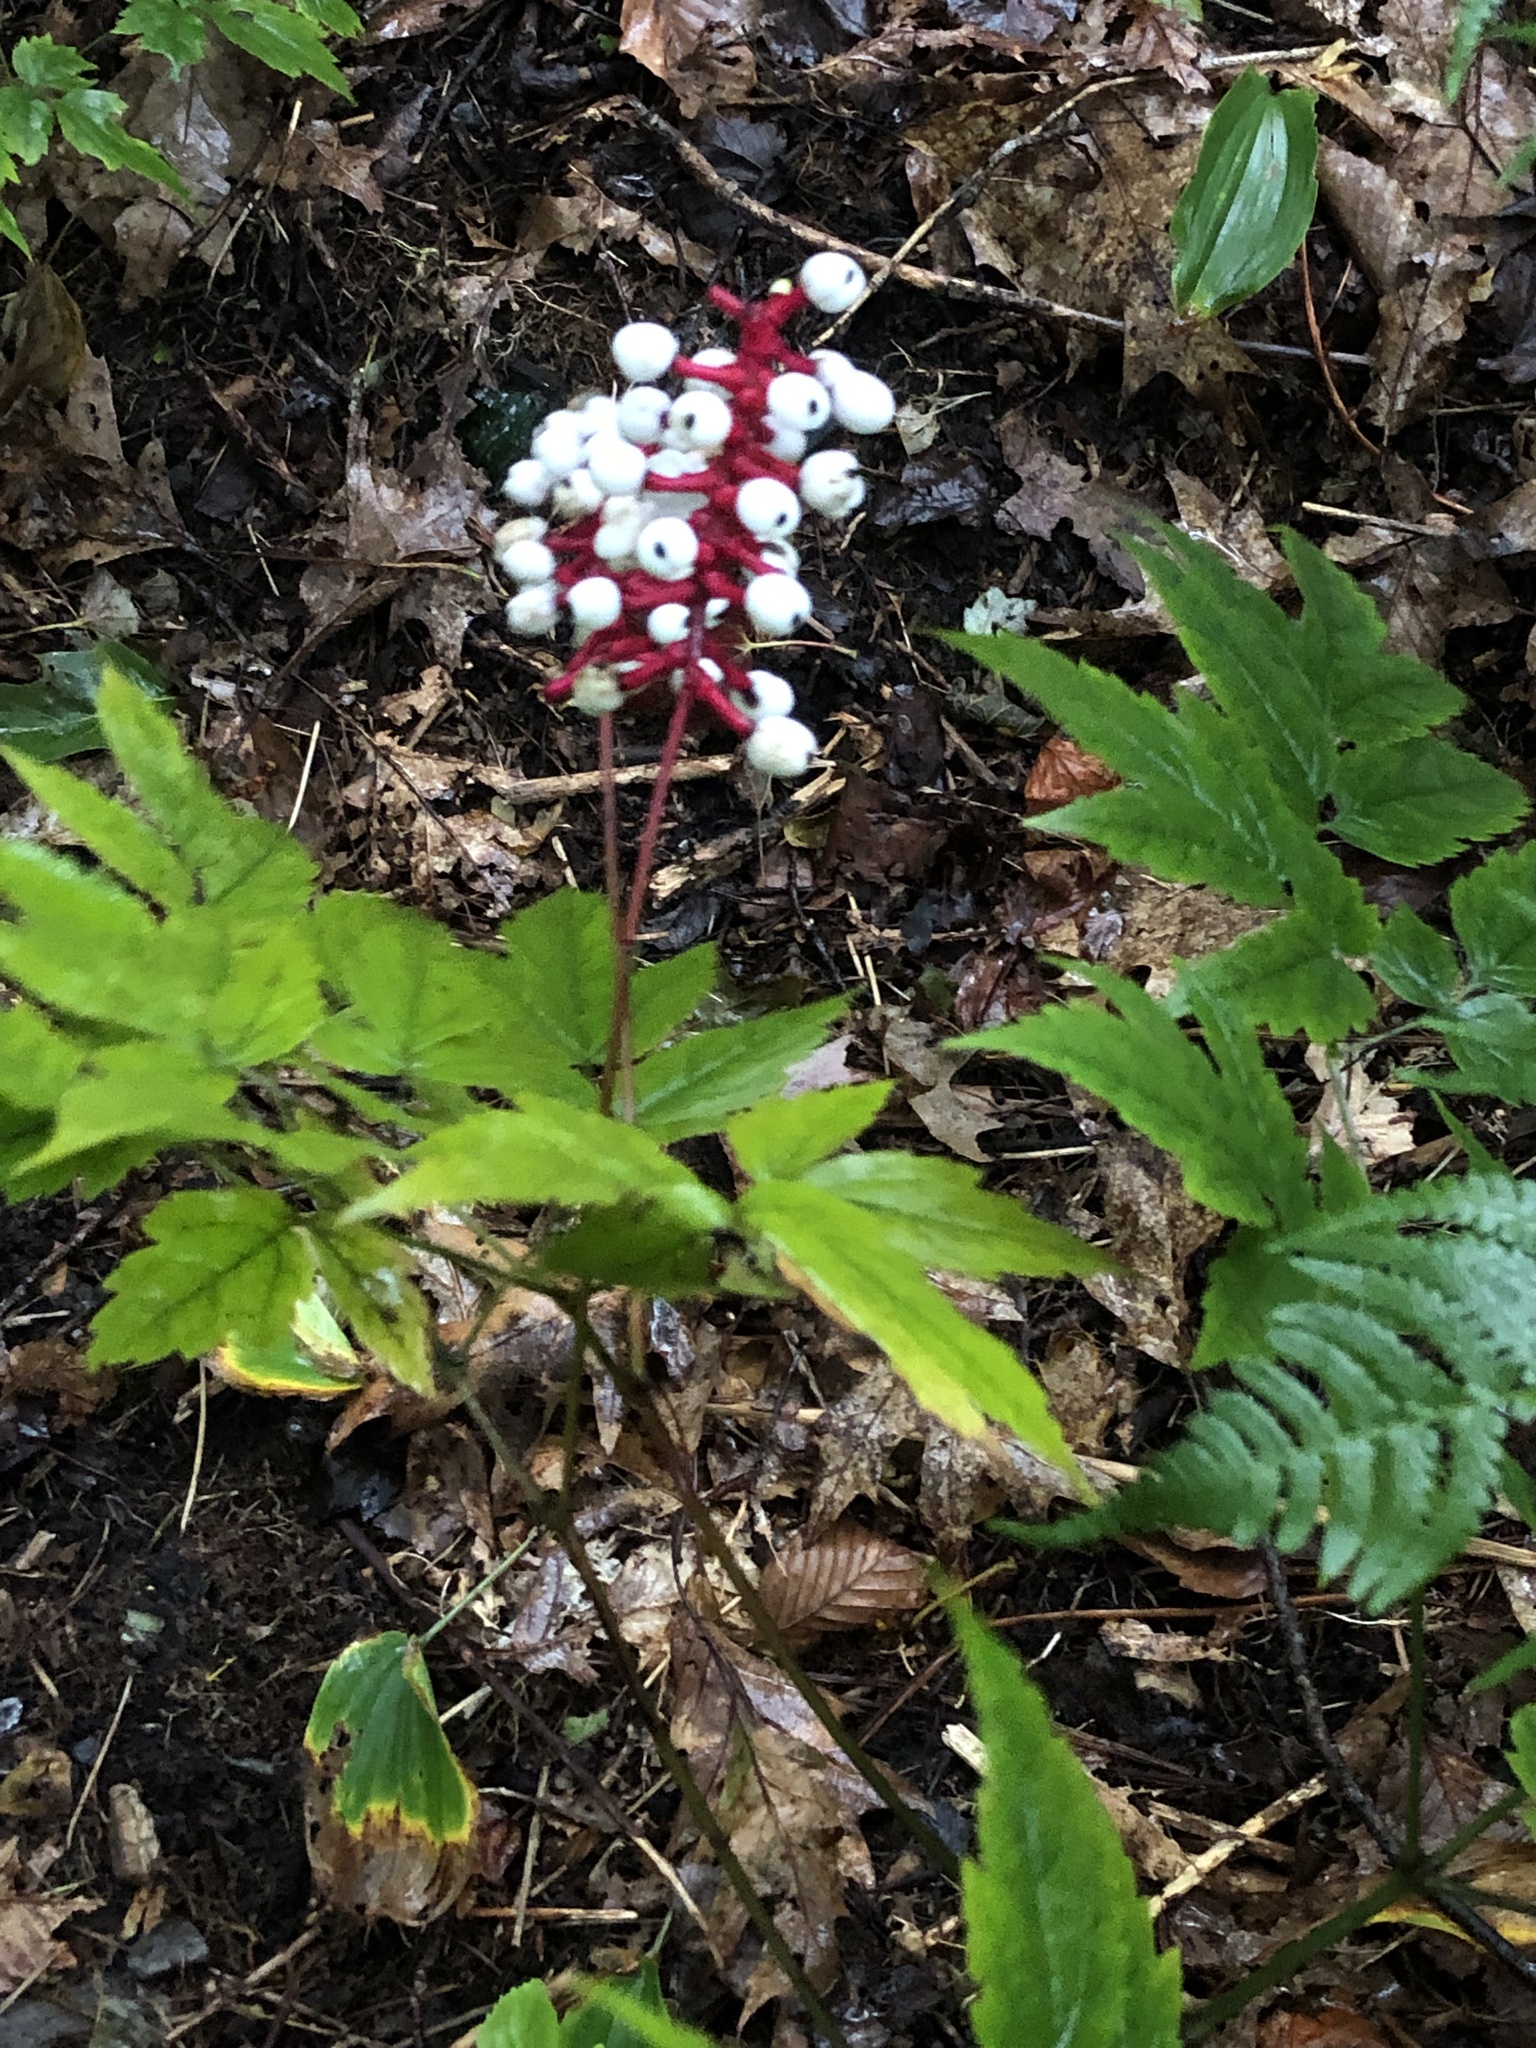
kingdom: Plantae
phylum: Tracheophyta
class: Magnoliopsida
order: Ranunculales
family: Ranunculaceae
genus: Actaea
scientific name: Actaea pachypoda
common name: Doll's-eyes
